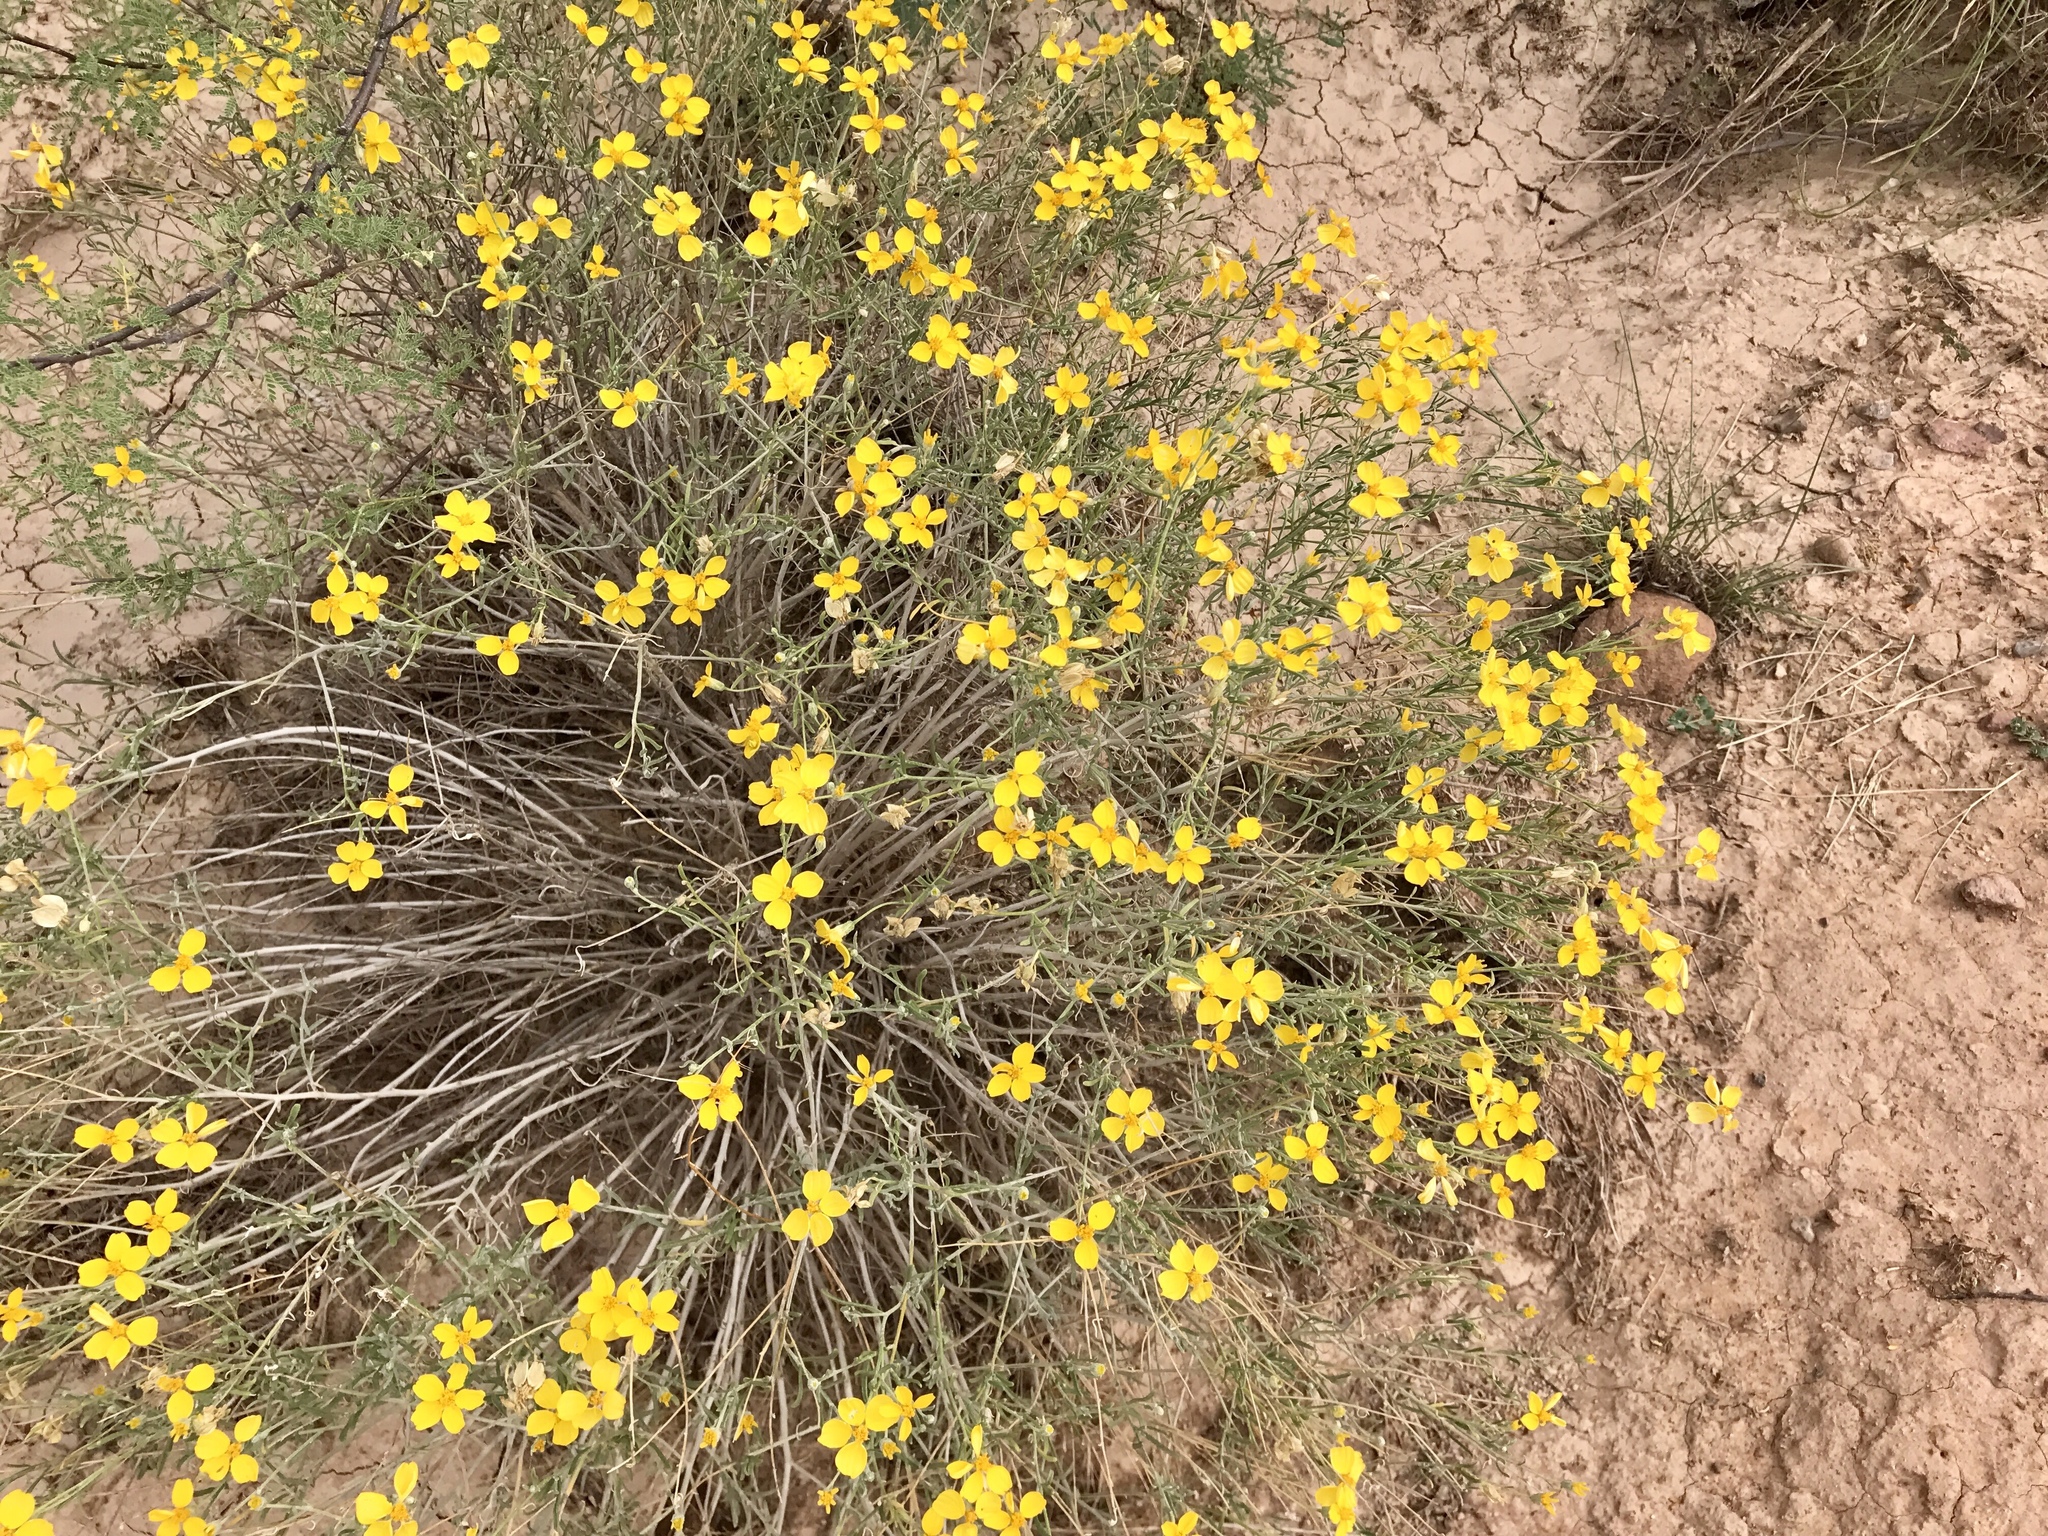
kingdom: Plantae
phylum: Tracheophyta
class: Magnoliopsida
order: Asterales
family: Asteraceae
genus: Psilostrophe
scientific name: Psilostrophe cooperi
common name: White-stem paper-flower
